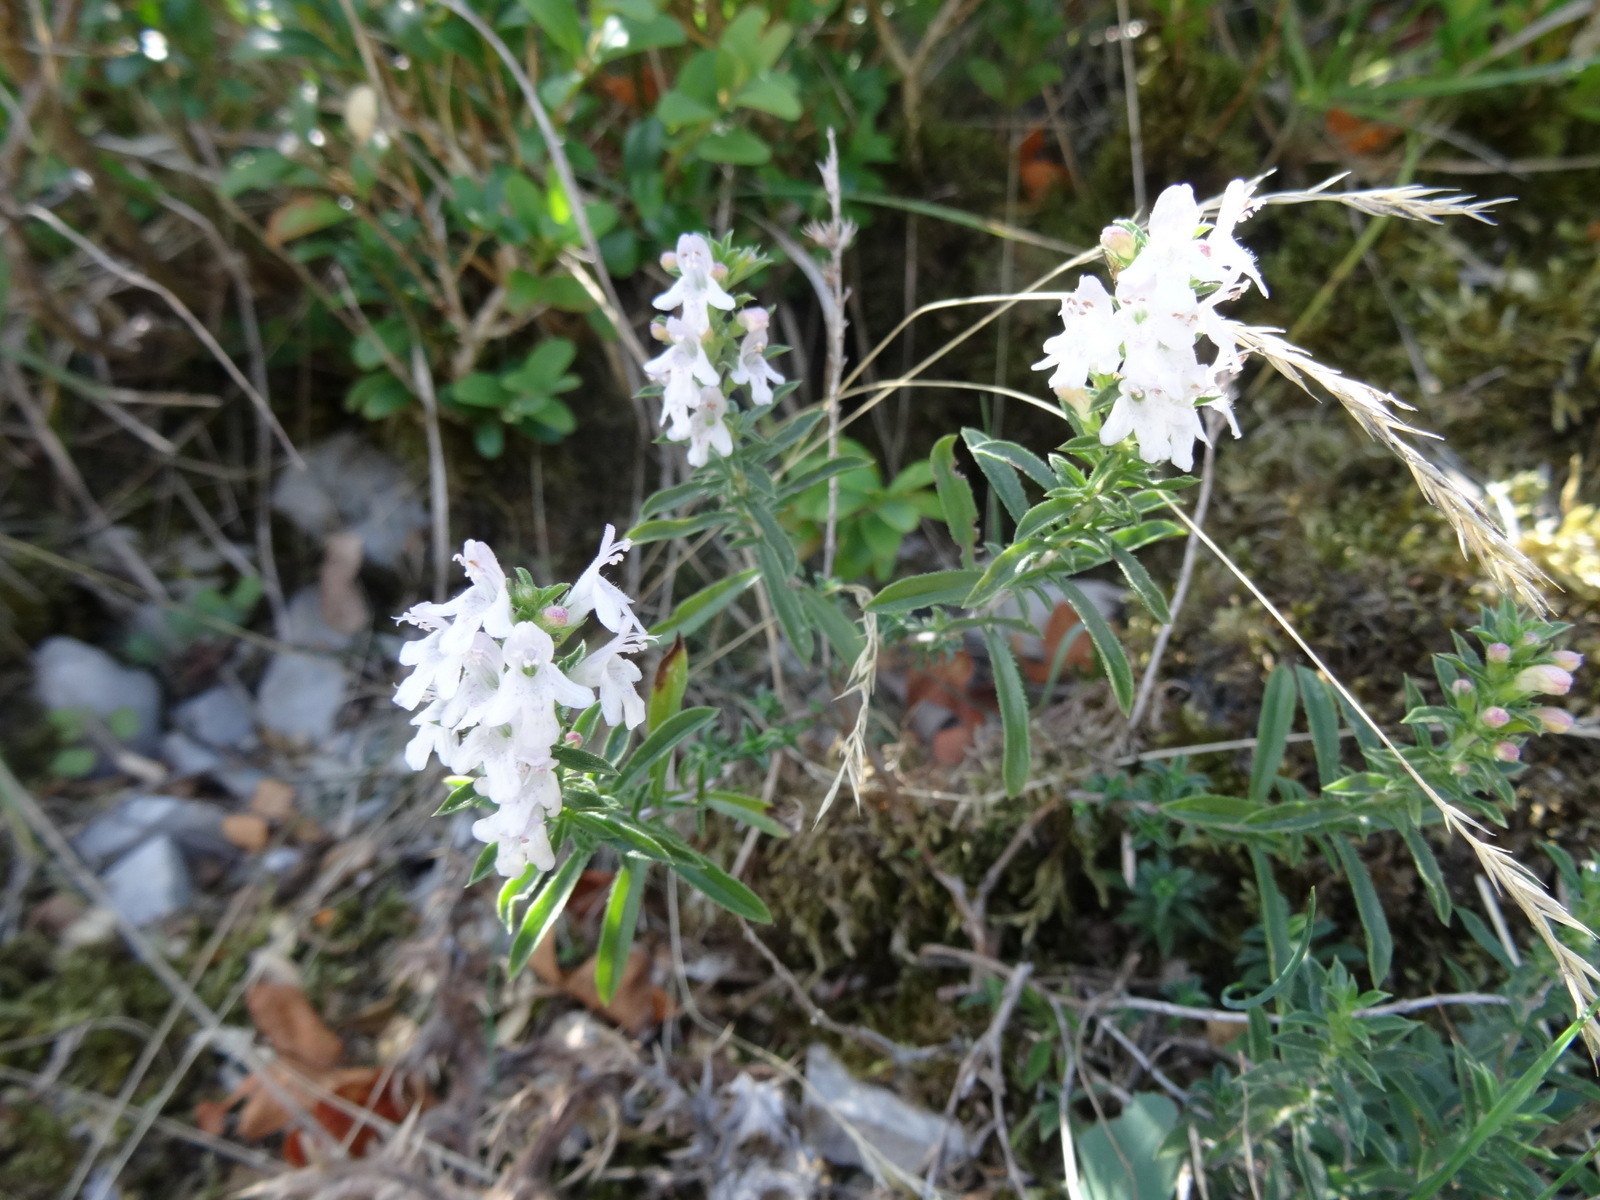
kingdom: Plantae
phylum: Tracheophyta
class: Magnoliopsida
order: Lamiales
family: Lamiaceae
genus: Satureja
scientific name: Satureja montana
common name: Winter savory
